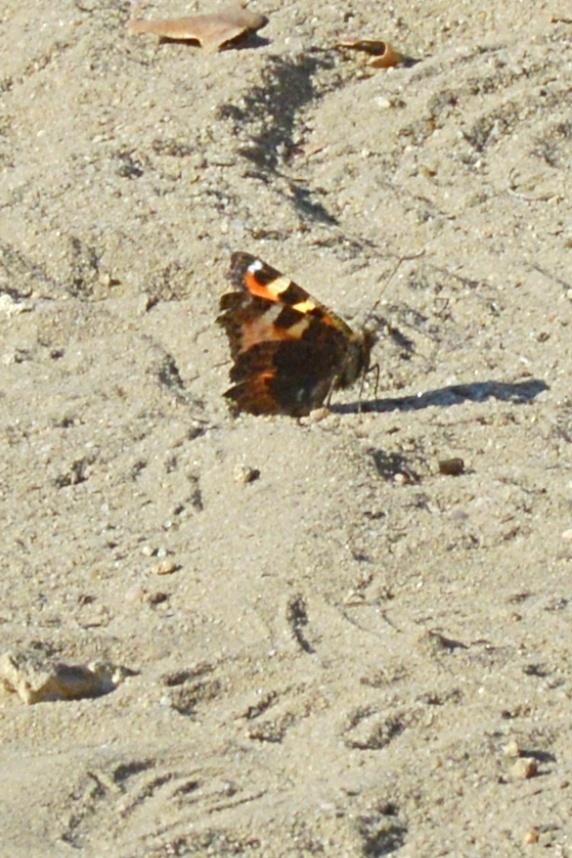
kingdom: Animalia
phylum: Arthropoda
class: Insecta
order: Lepidoptera
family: Nymphalidae
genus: Aglais
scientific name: Aglais urticae
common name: Small tortoiseshell
